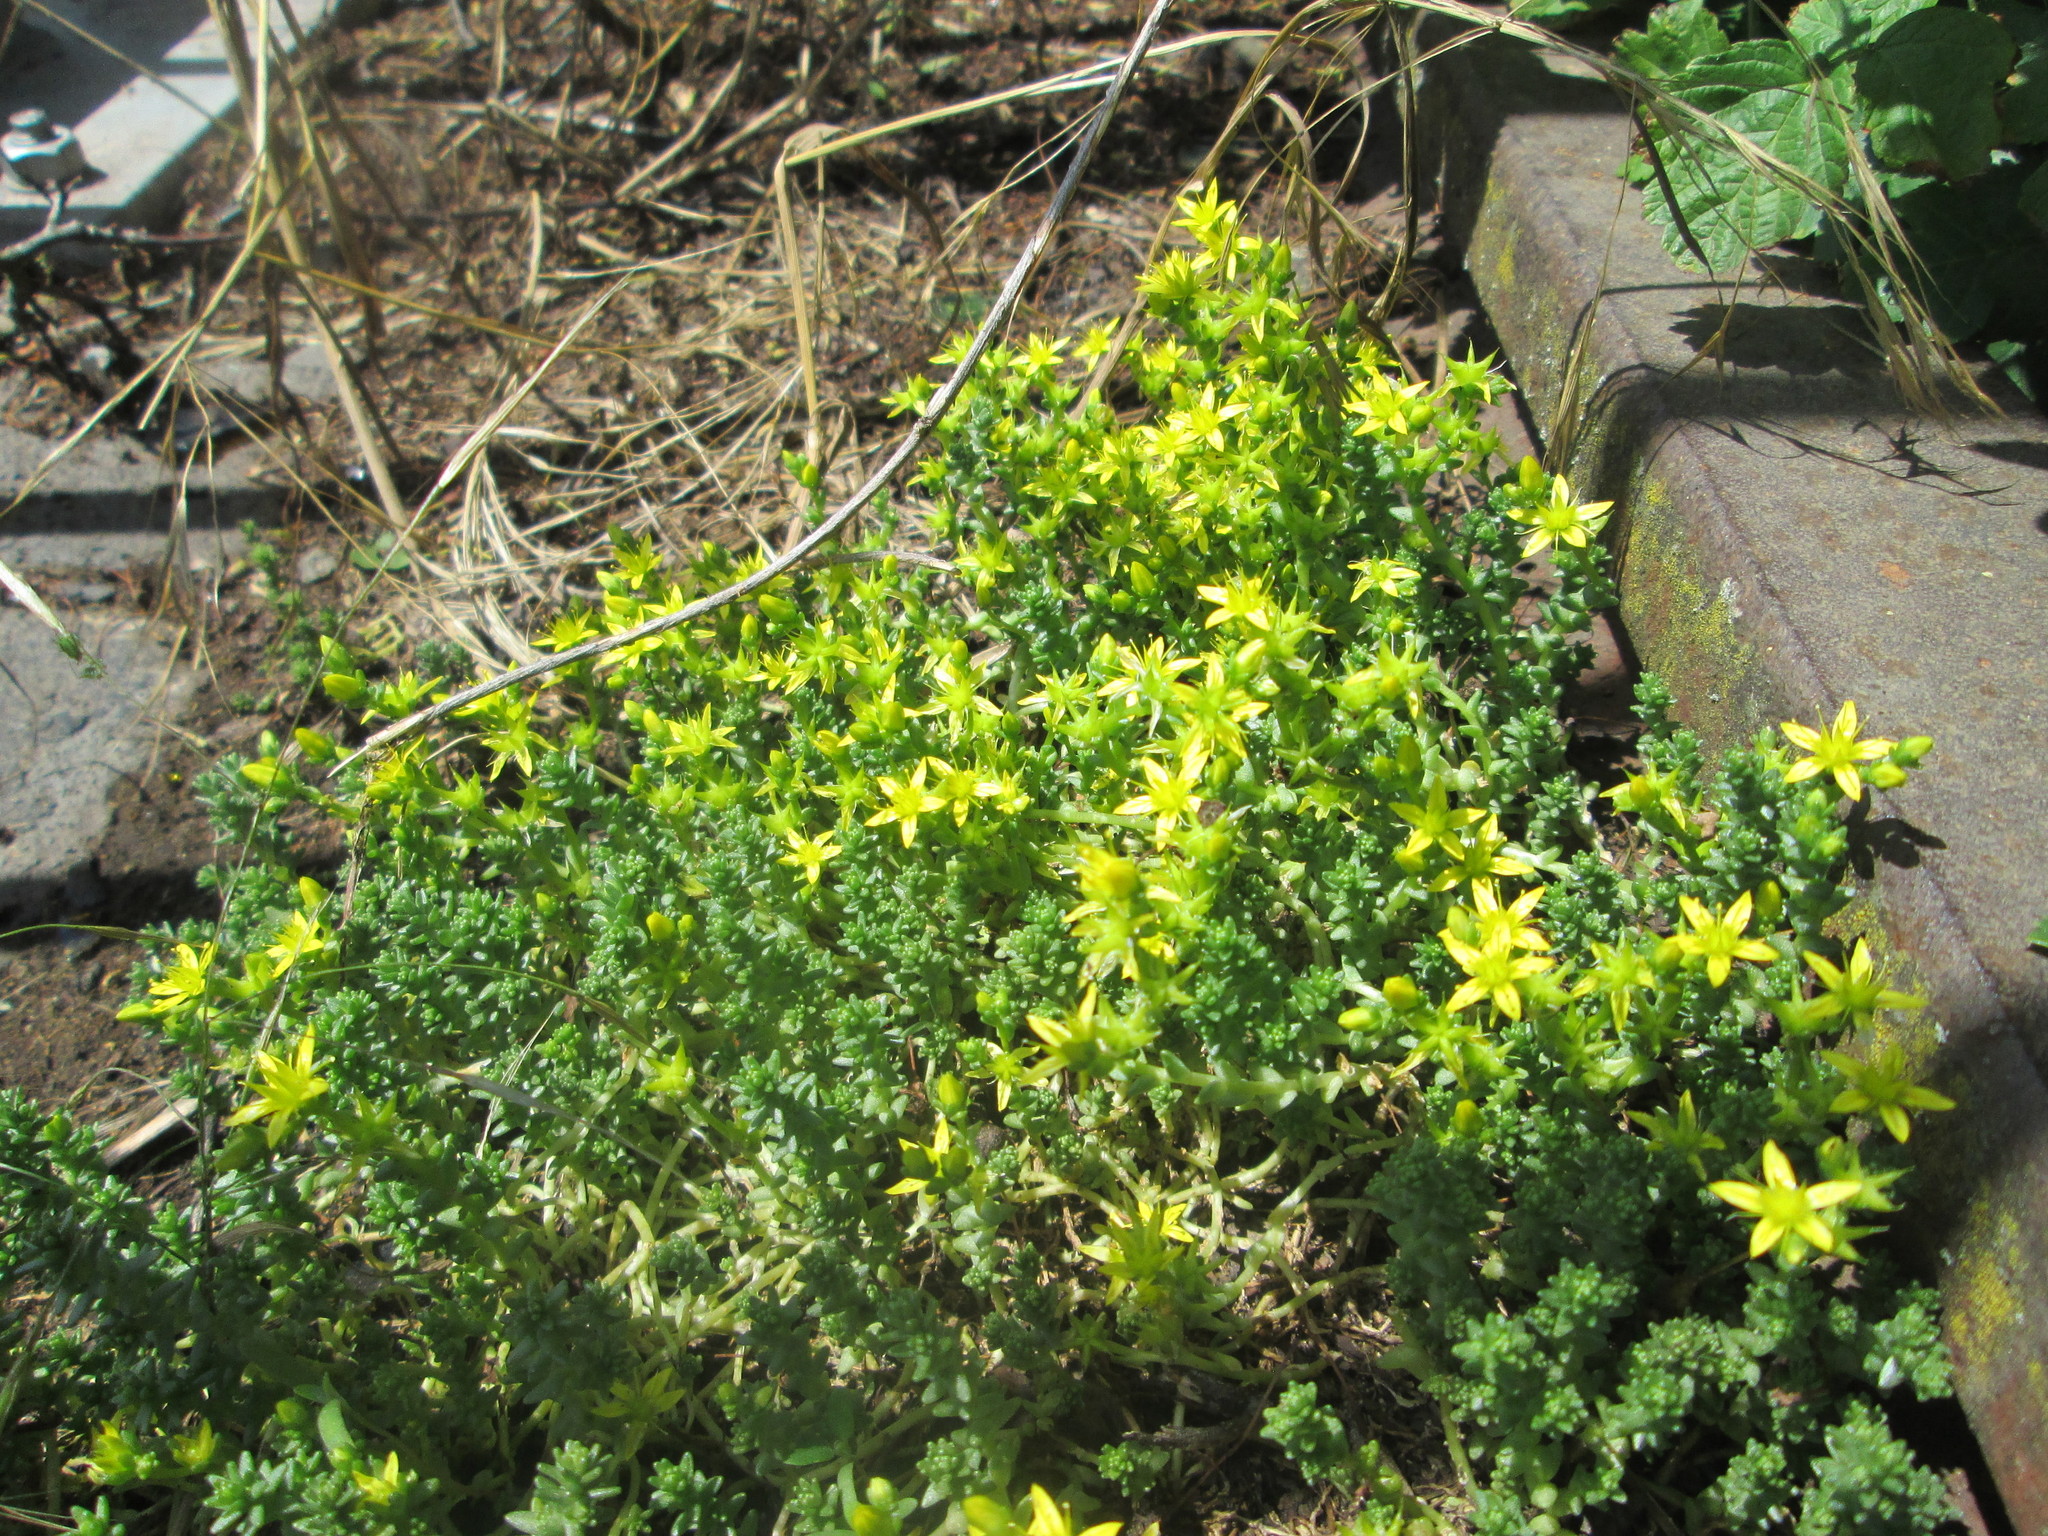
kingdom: Plantae
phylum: Tracheophyta
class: Magnoliopsida
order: Saxifragales
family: Crassulaceae
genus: Sedum
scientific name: Sedum acre
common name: Biting stonecrop
